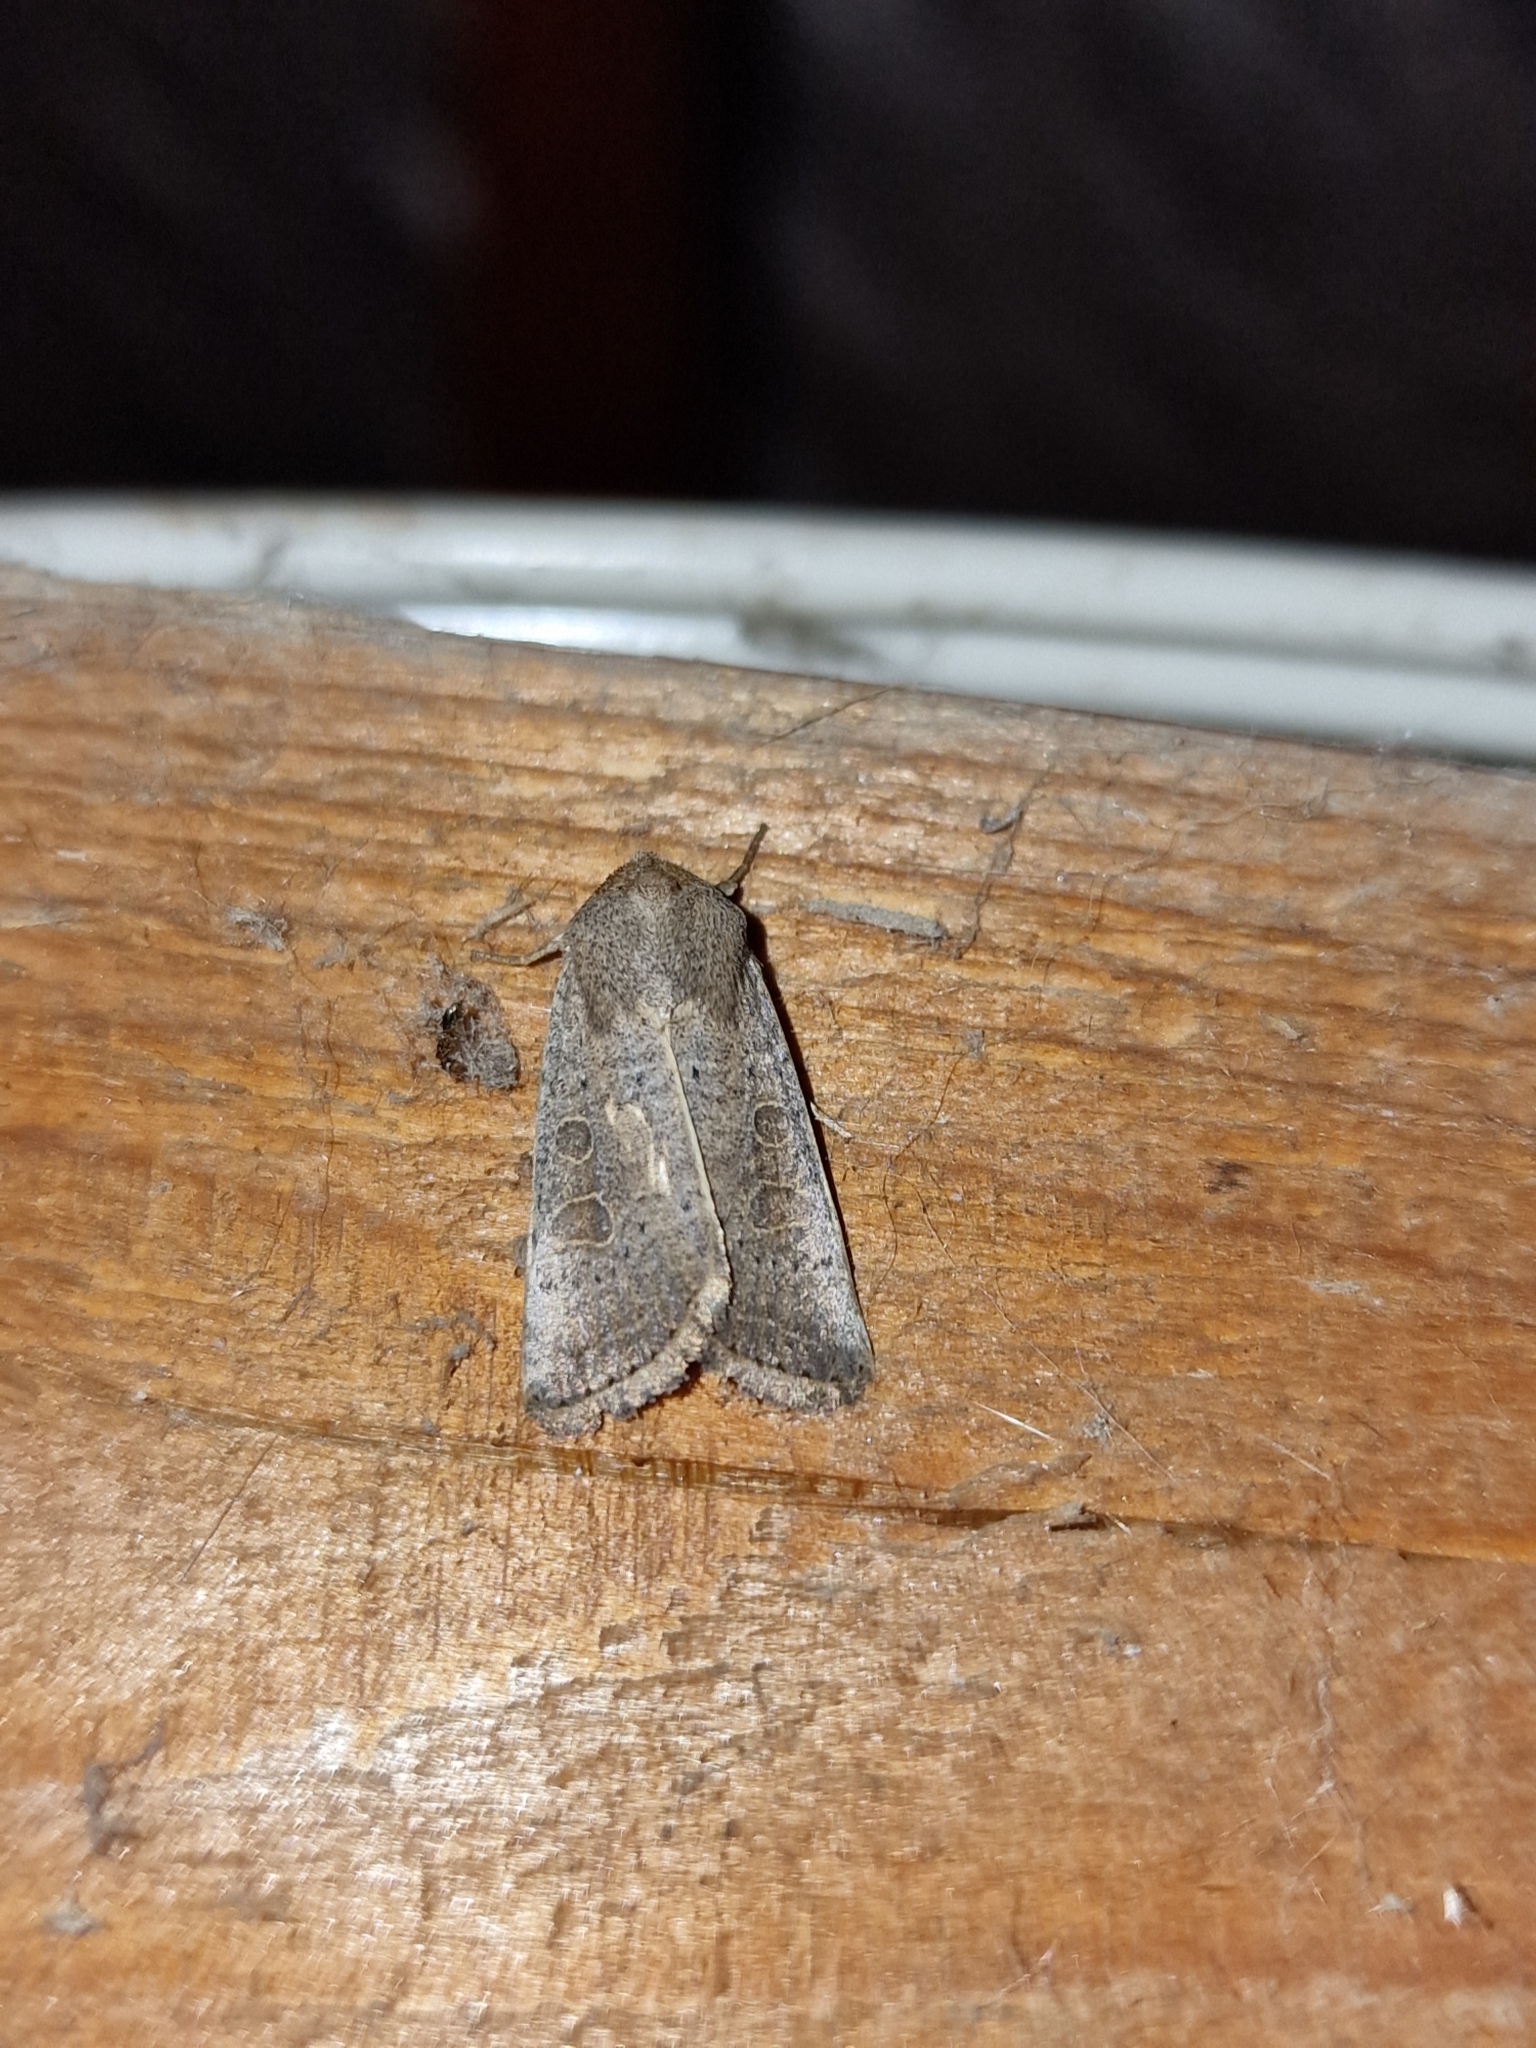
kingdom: Animalia
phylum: Arthropoda
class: Insecta
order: Lepidoptera
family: Noctuidae
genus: Hoplodrina
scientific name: Hoplodrina ambigua
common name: Vine's rustic
